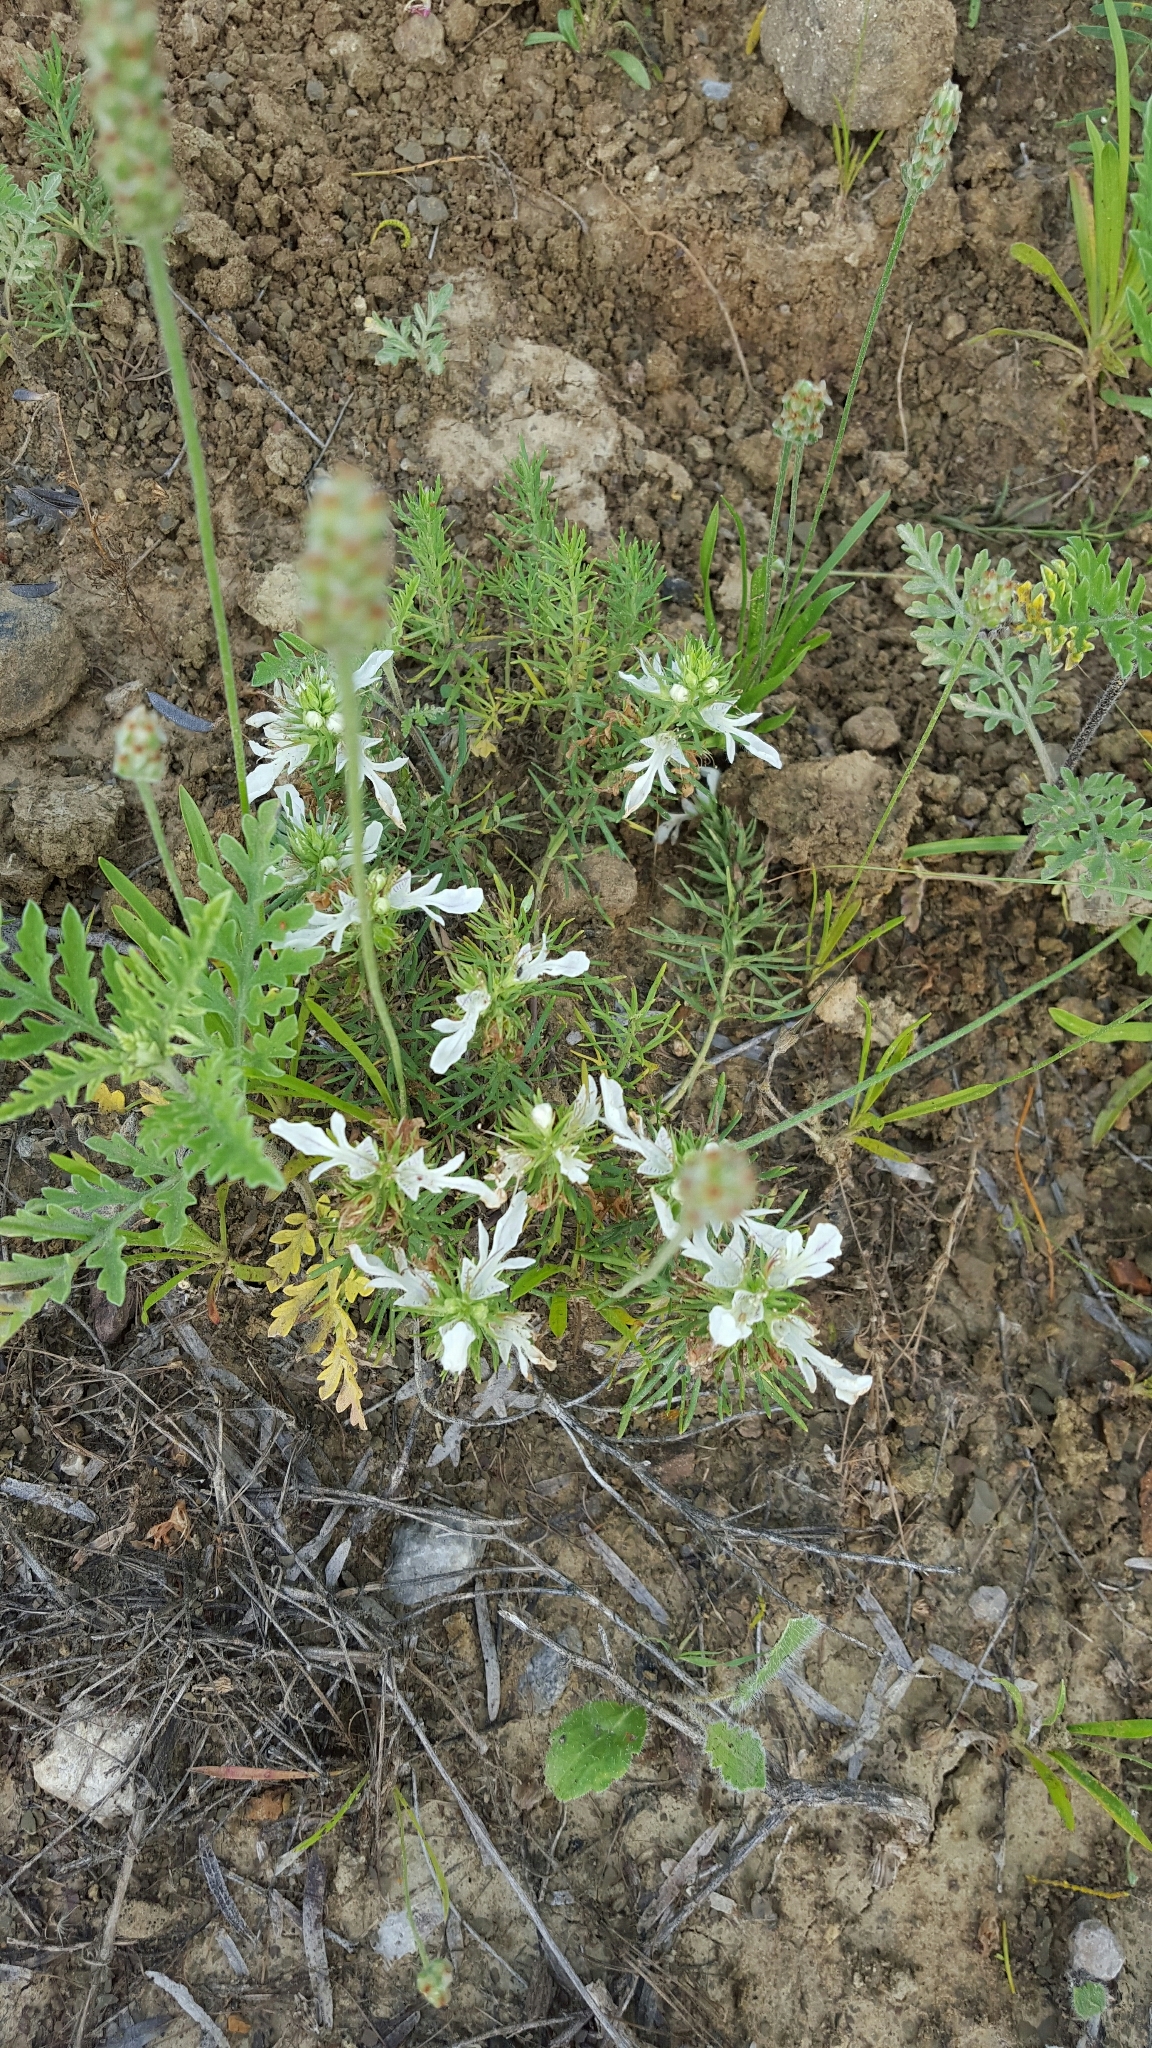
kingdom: Plantae
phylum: Tracheophyta
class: Magnoliopsida
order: Lamiales
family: Lamiaceae
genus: Teucrium
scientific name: Teucrium laciniatum
